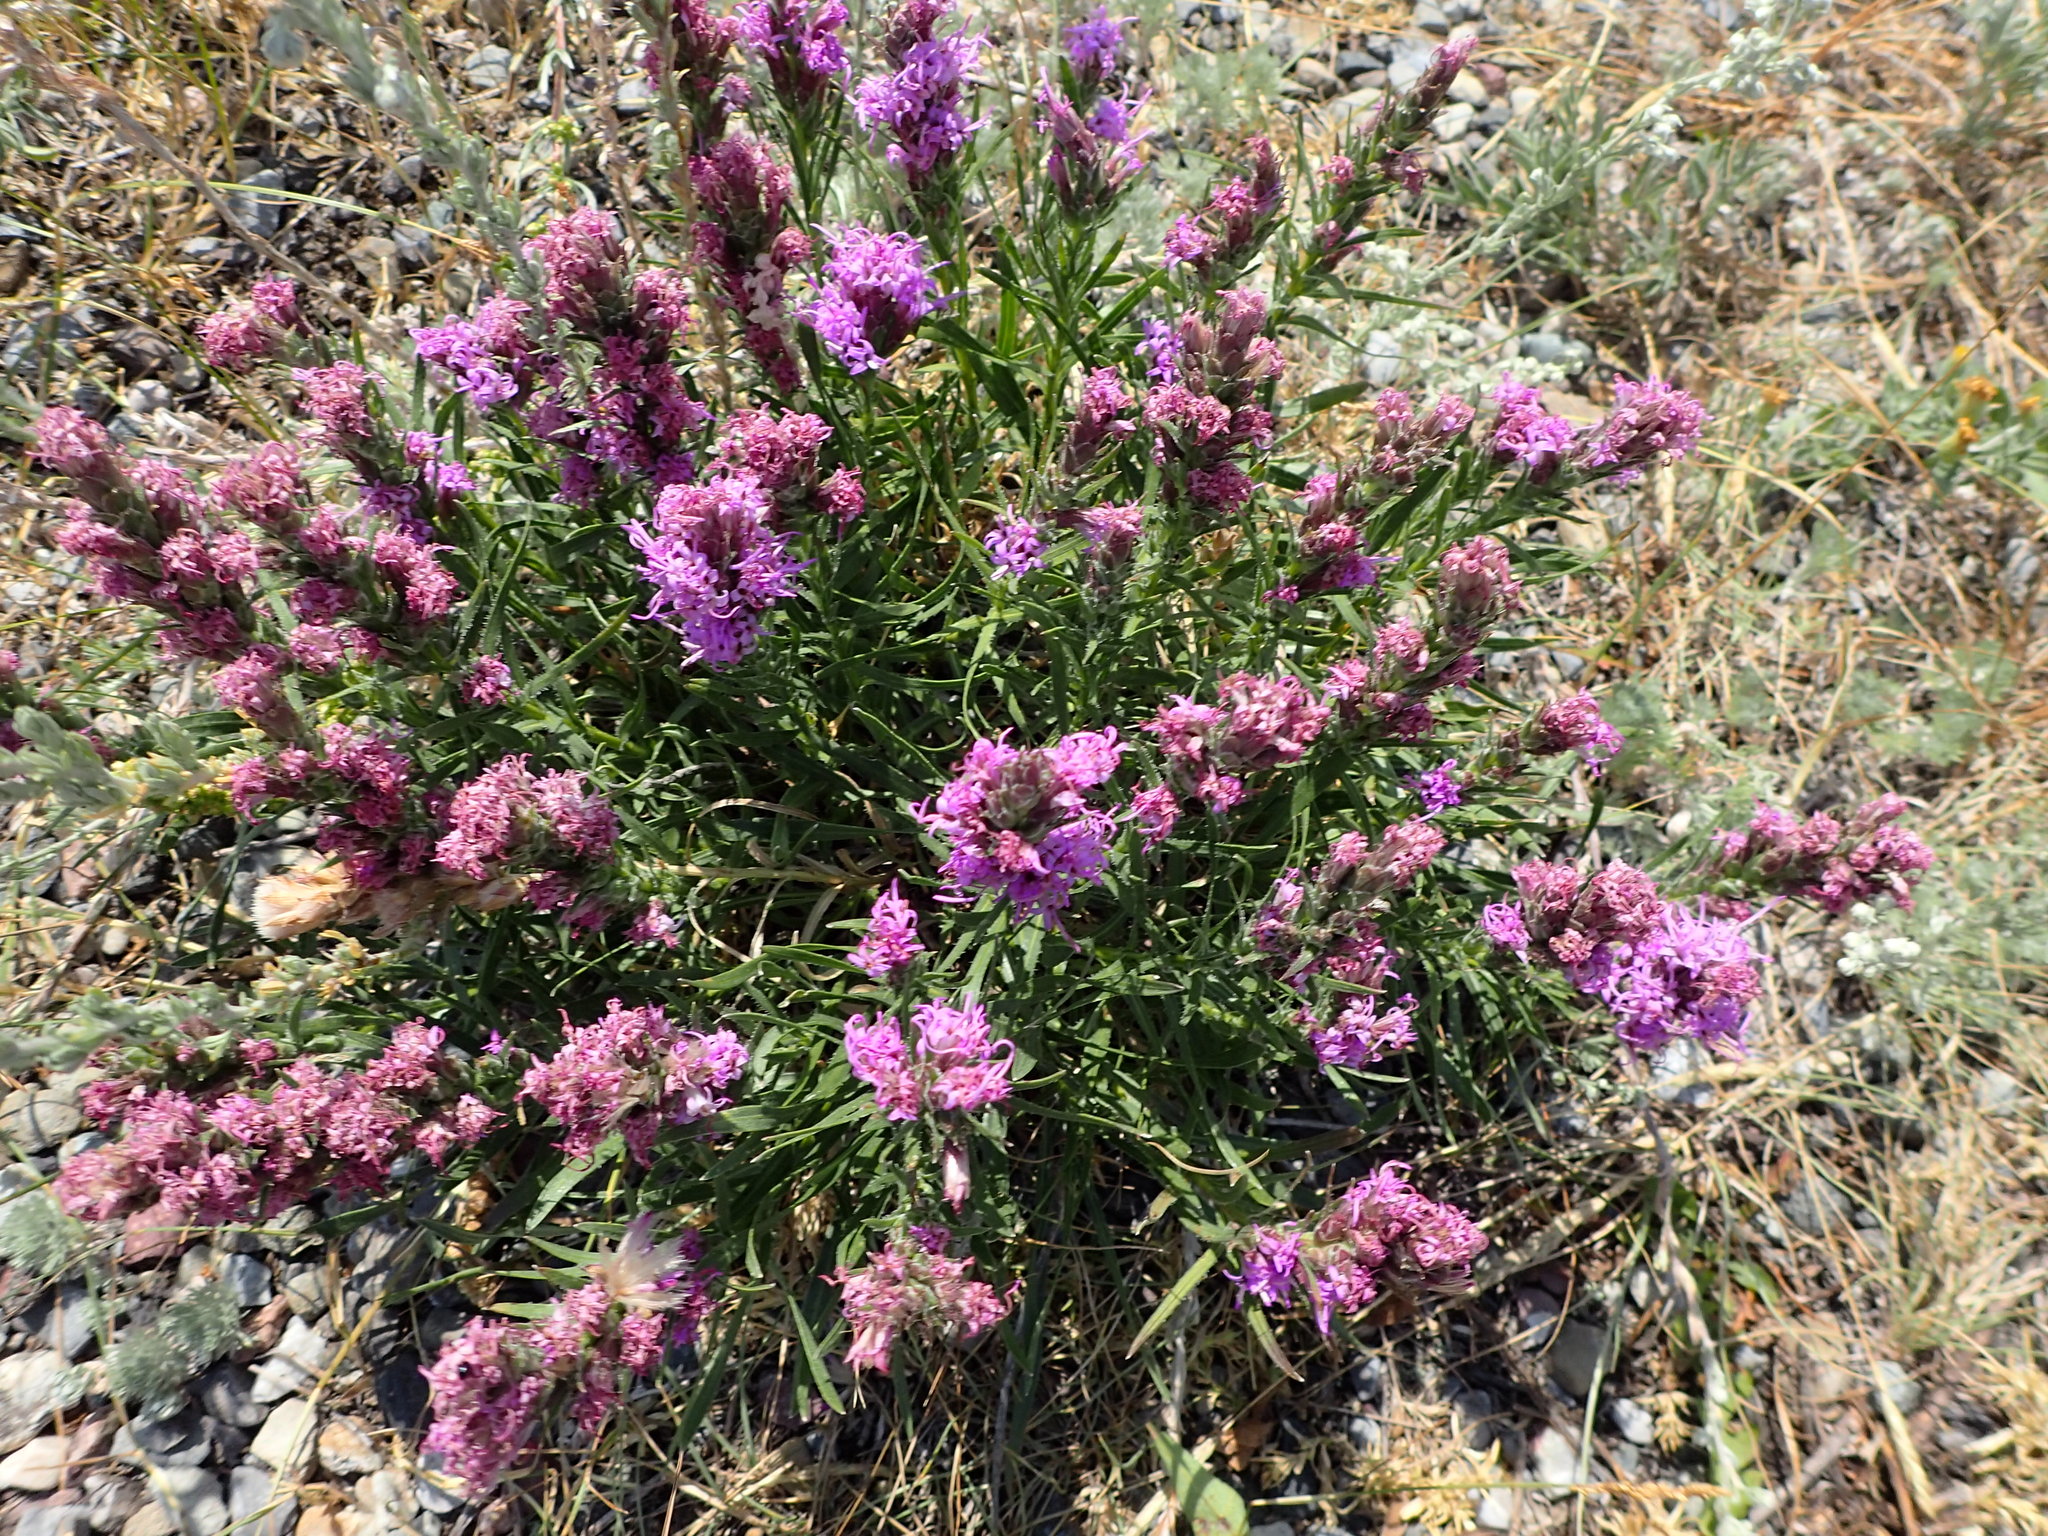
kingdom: Plantae
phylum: Tracheophyta
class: Magnoliopsida
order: Asterales
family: Asteraceae
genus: Liatris
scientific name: Liatris punctata
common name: Dotted gayfeather
